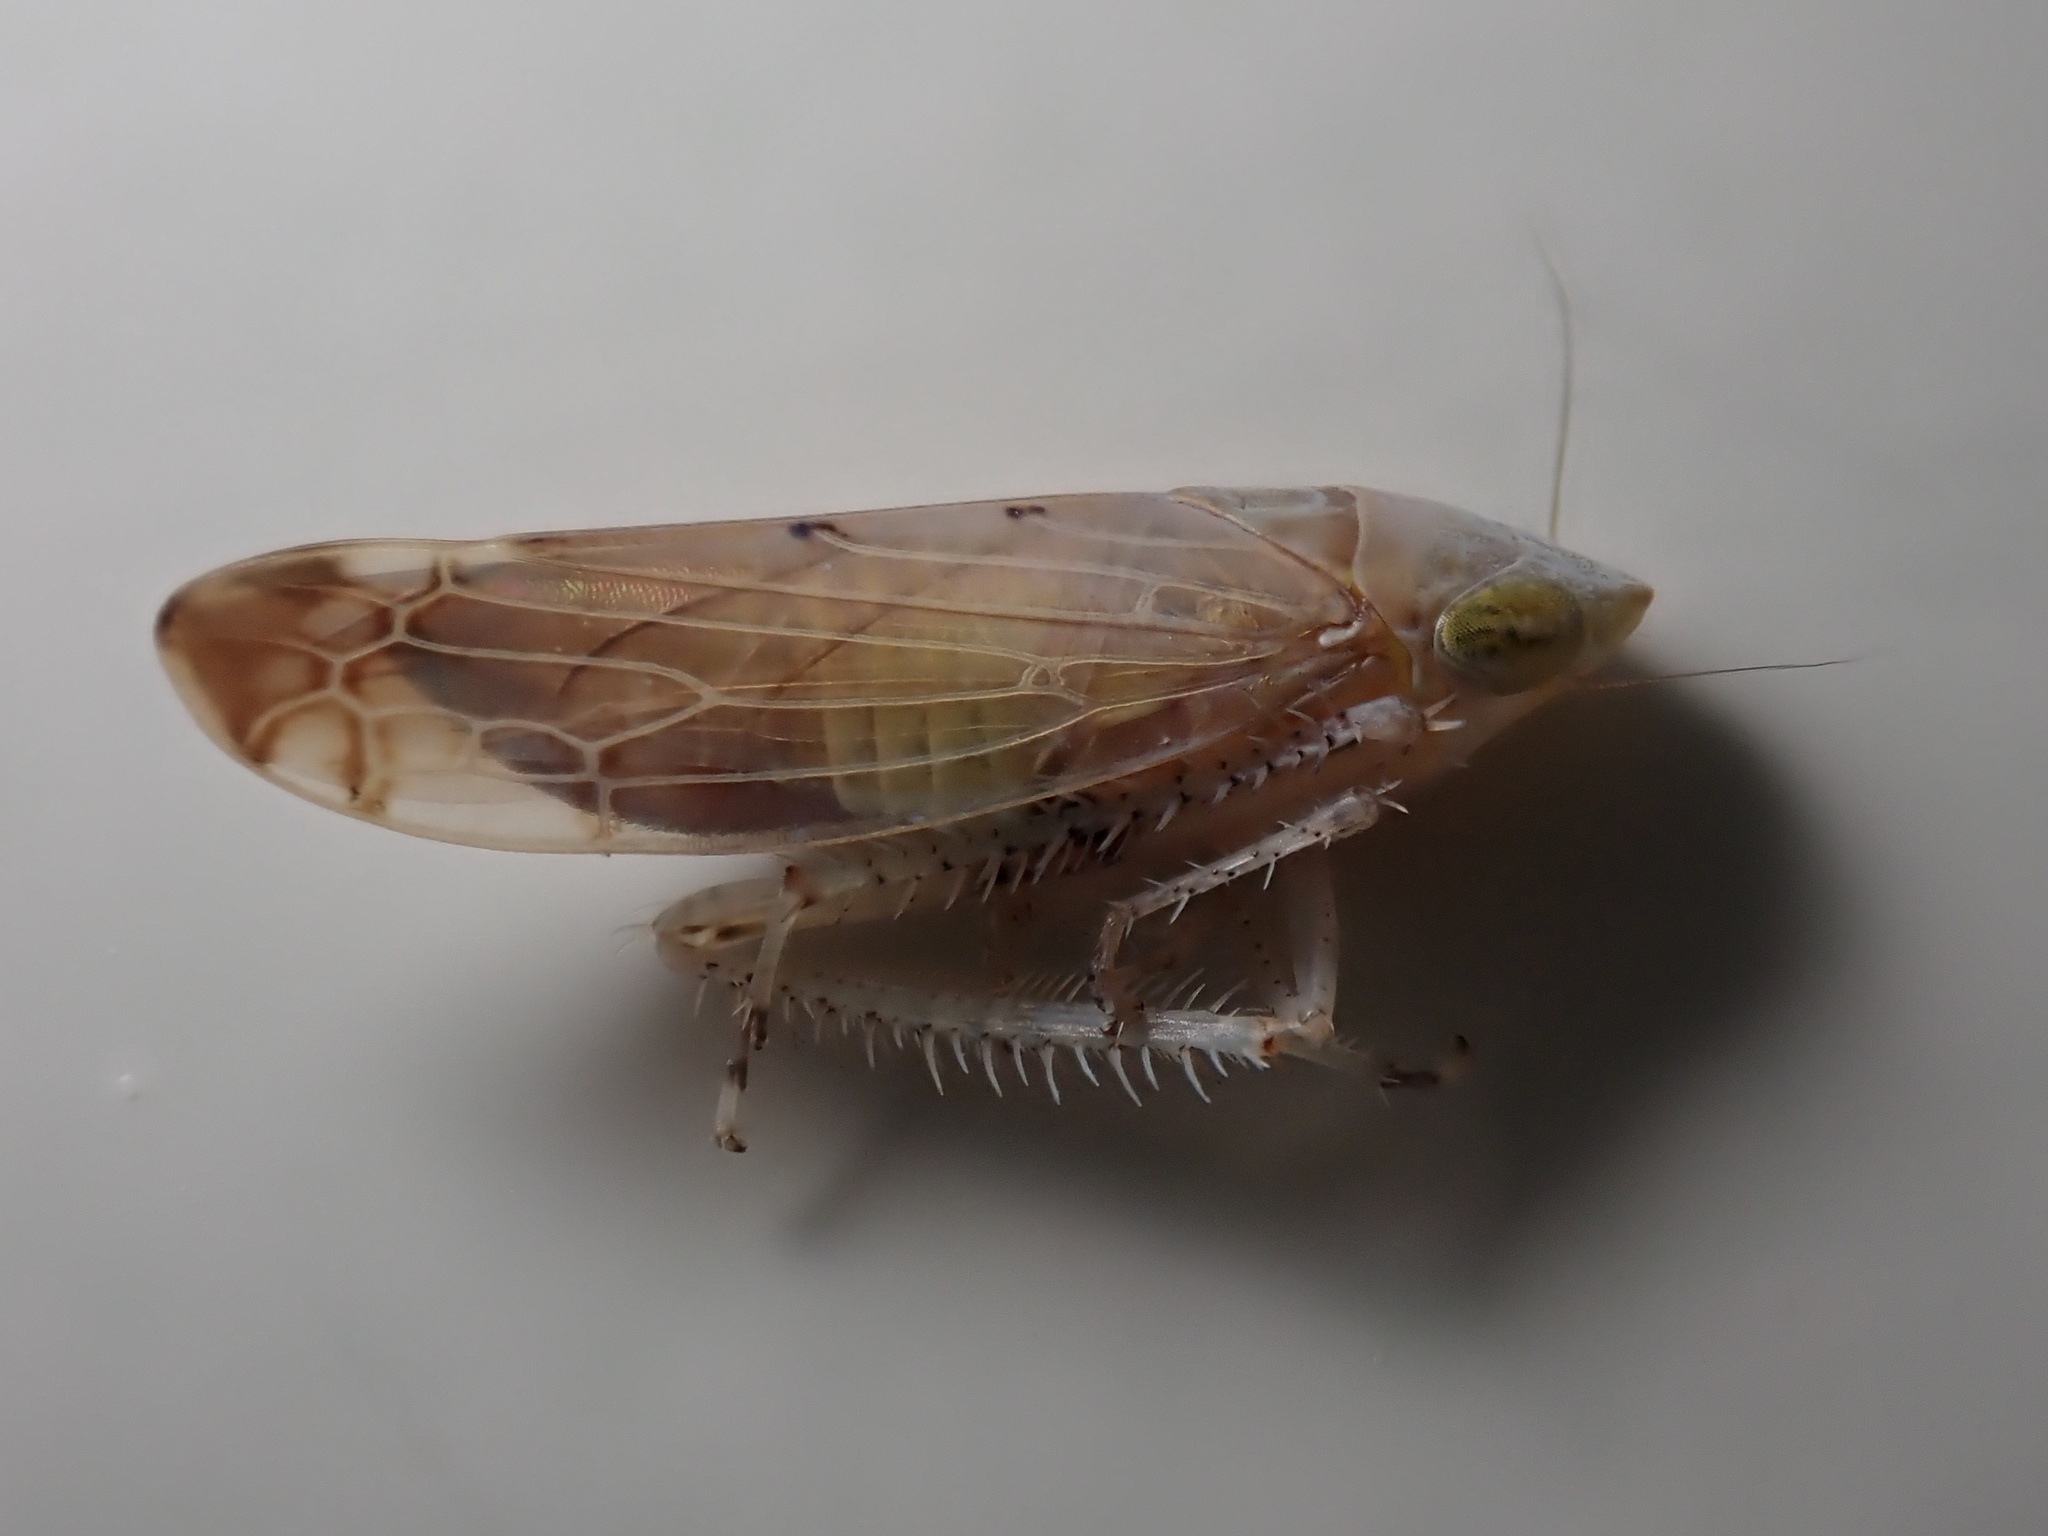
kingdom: Animalia
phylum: Arthropoda
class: Insecta
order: Hemiptera
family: Cicadellidae
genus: Synophropsis
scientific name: Synophropsis lauri
